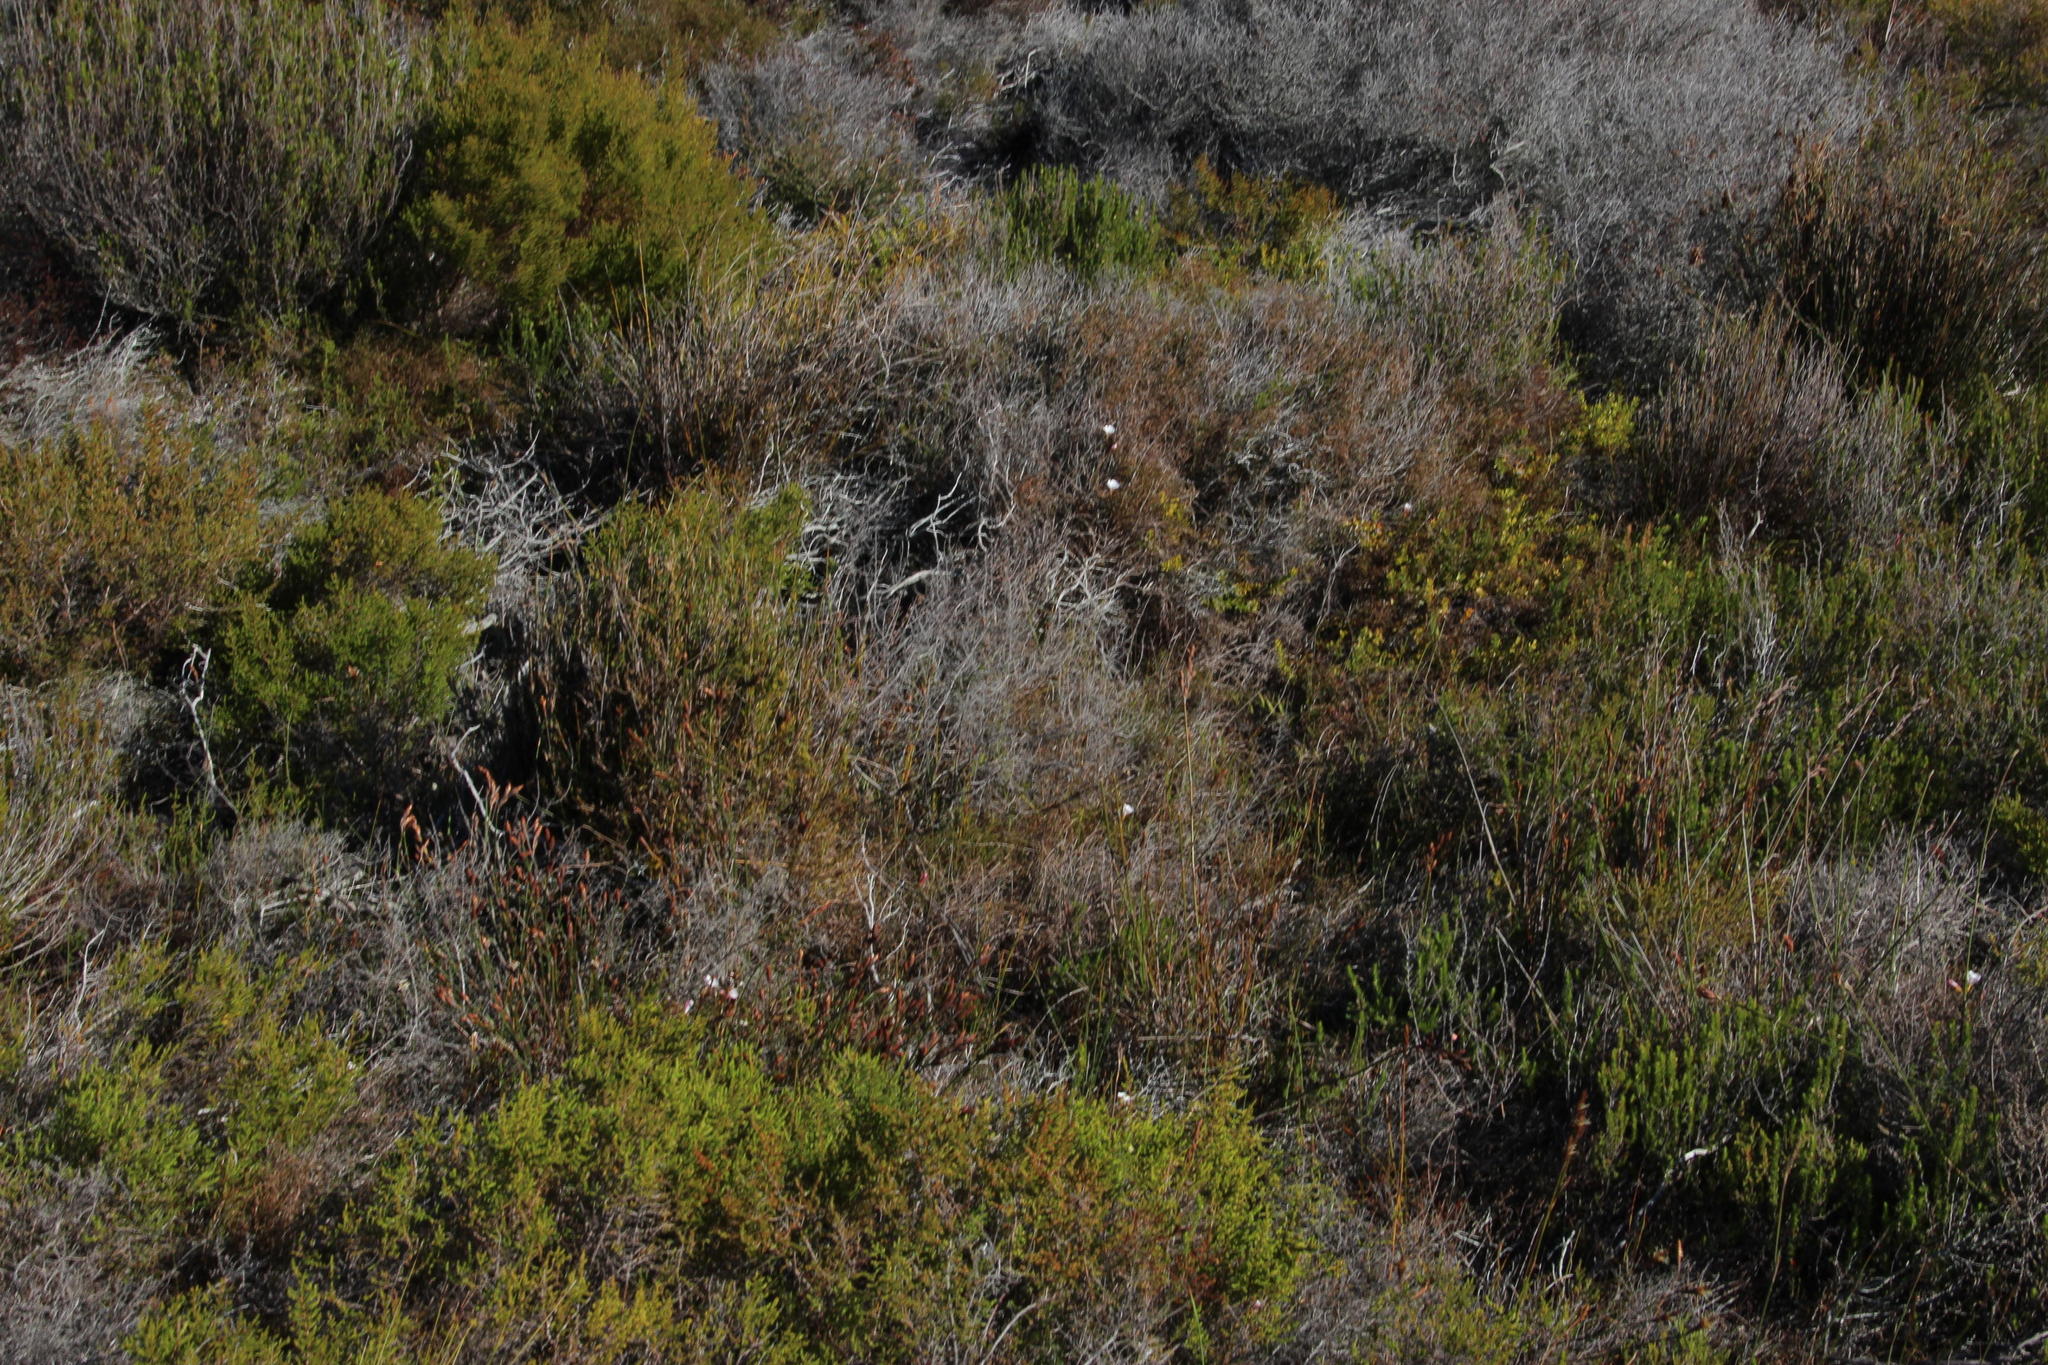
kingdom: Plantae
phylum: Tracheophyta
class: Magnoliopsida
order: Oxalidales
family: Oxalidaceae
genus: Oxalis
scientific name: Oxalis versicolor
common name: Peppermint rock oxalis
